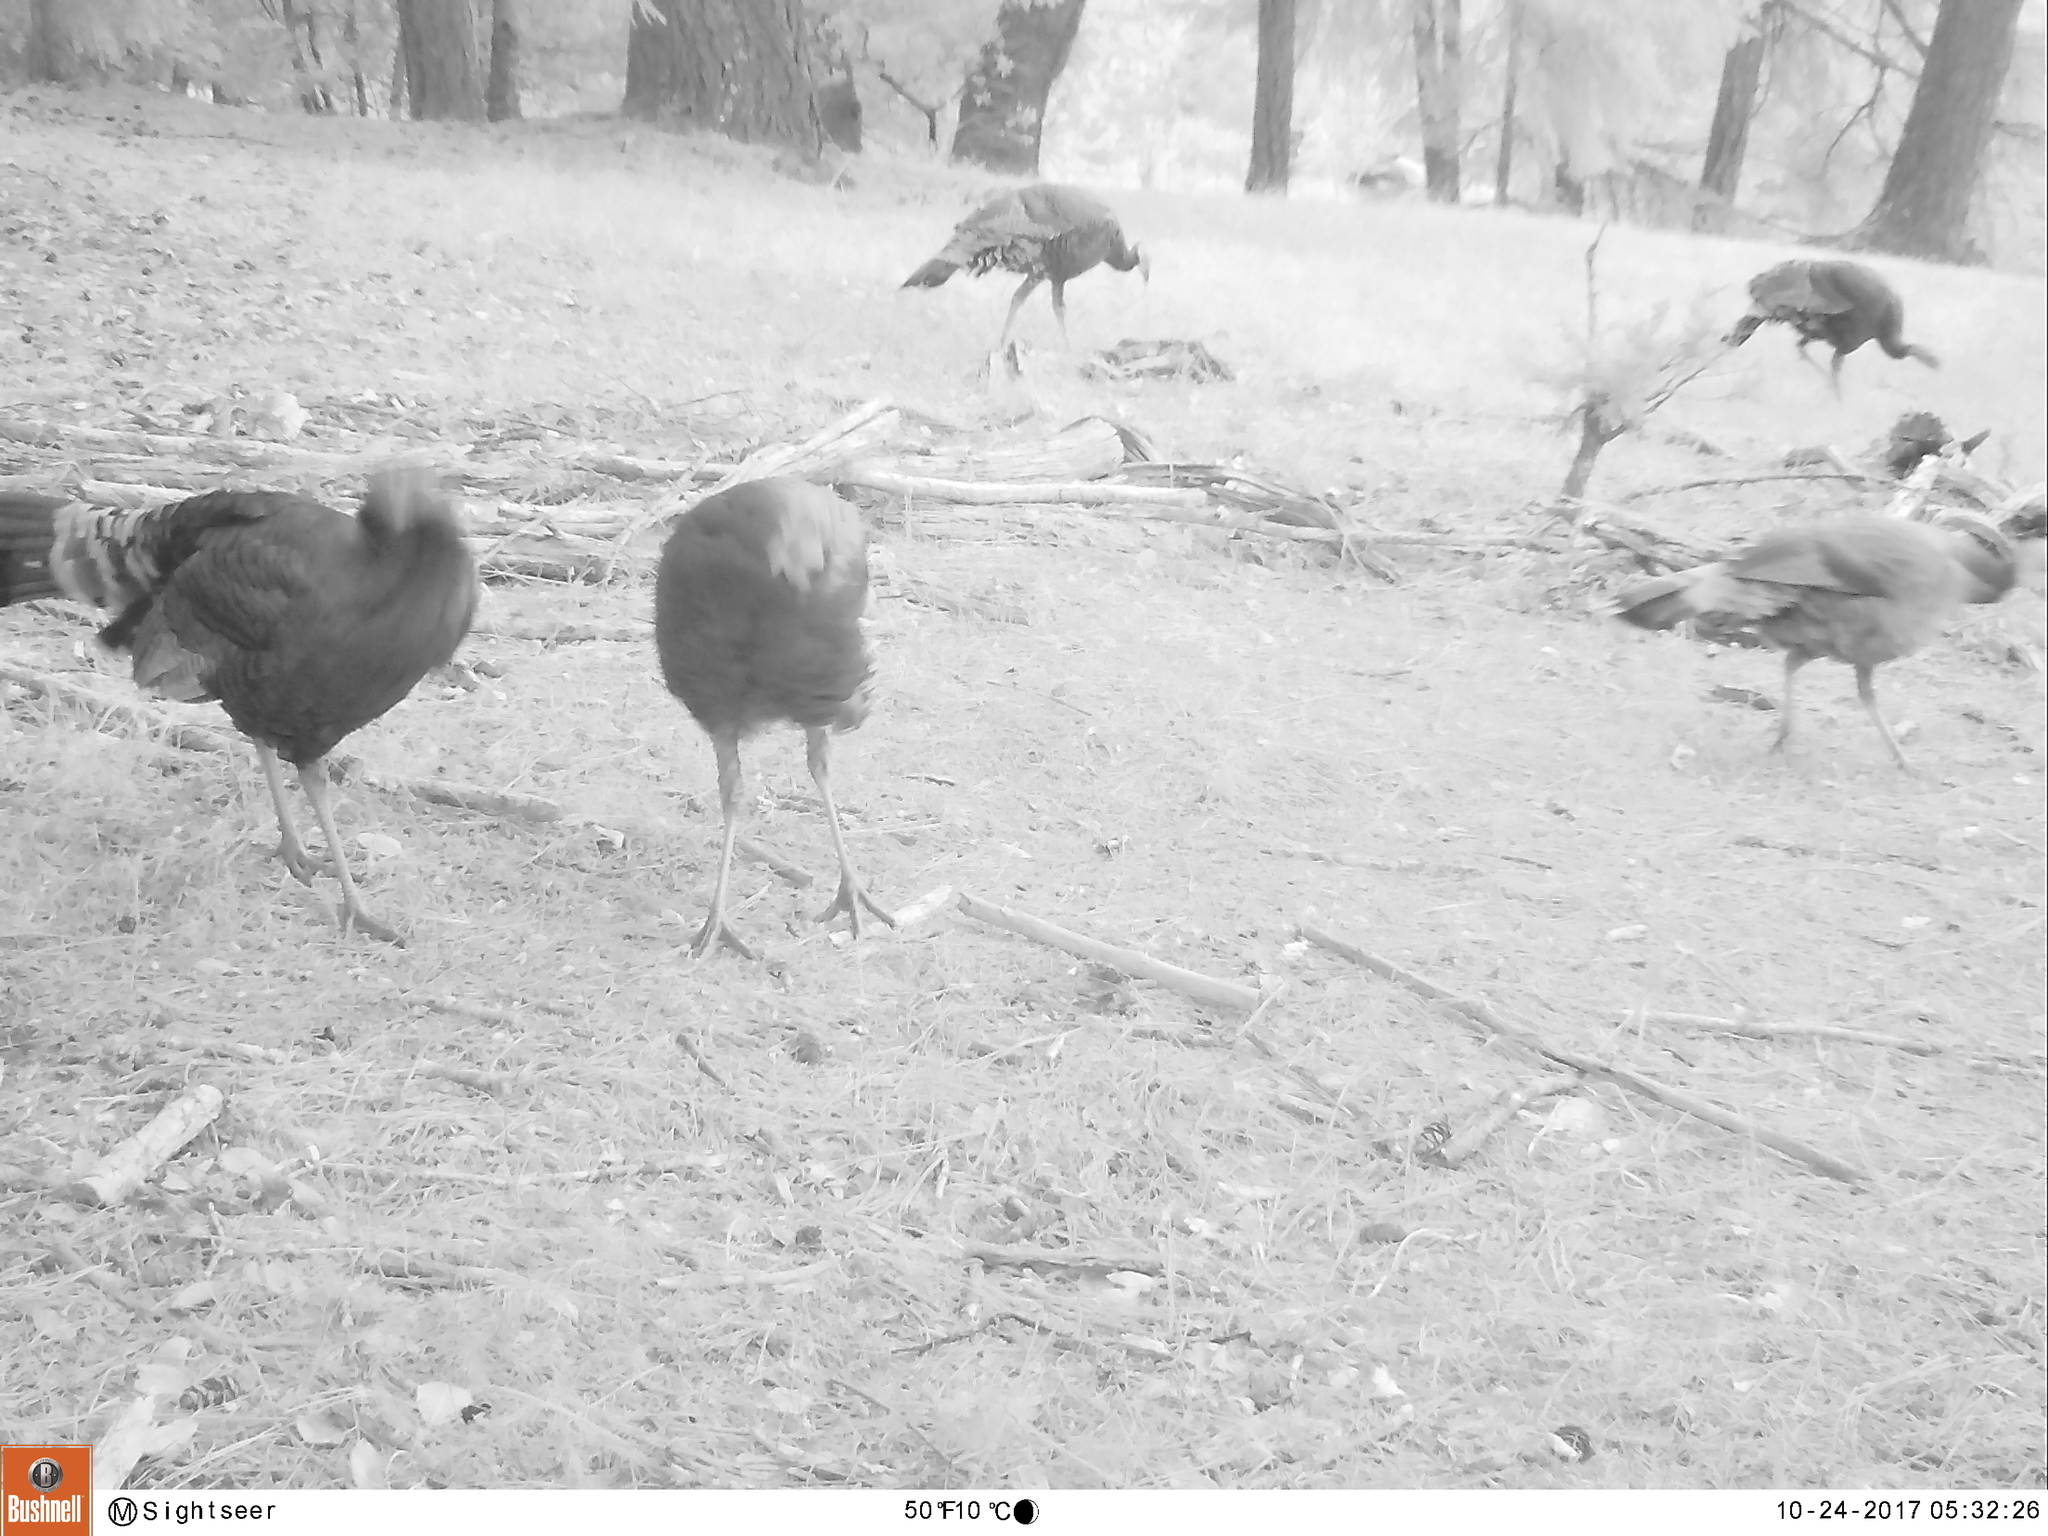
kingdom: Animalia
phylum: Chordata
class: Aves
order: Galliformes
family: Phasianidae
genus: Meleagris
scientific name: Meleagris gallopavo
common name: Wild turkey
